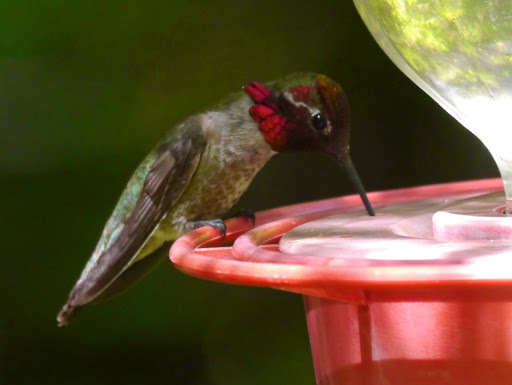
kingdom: Animalia
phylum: Chordata
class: Aves
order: Apodiformes
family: Trochilidae
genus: Calypte
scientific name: Calypte anna
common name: Anna's hummingbird
